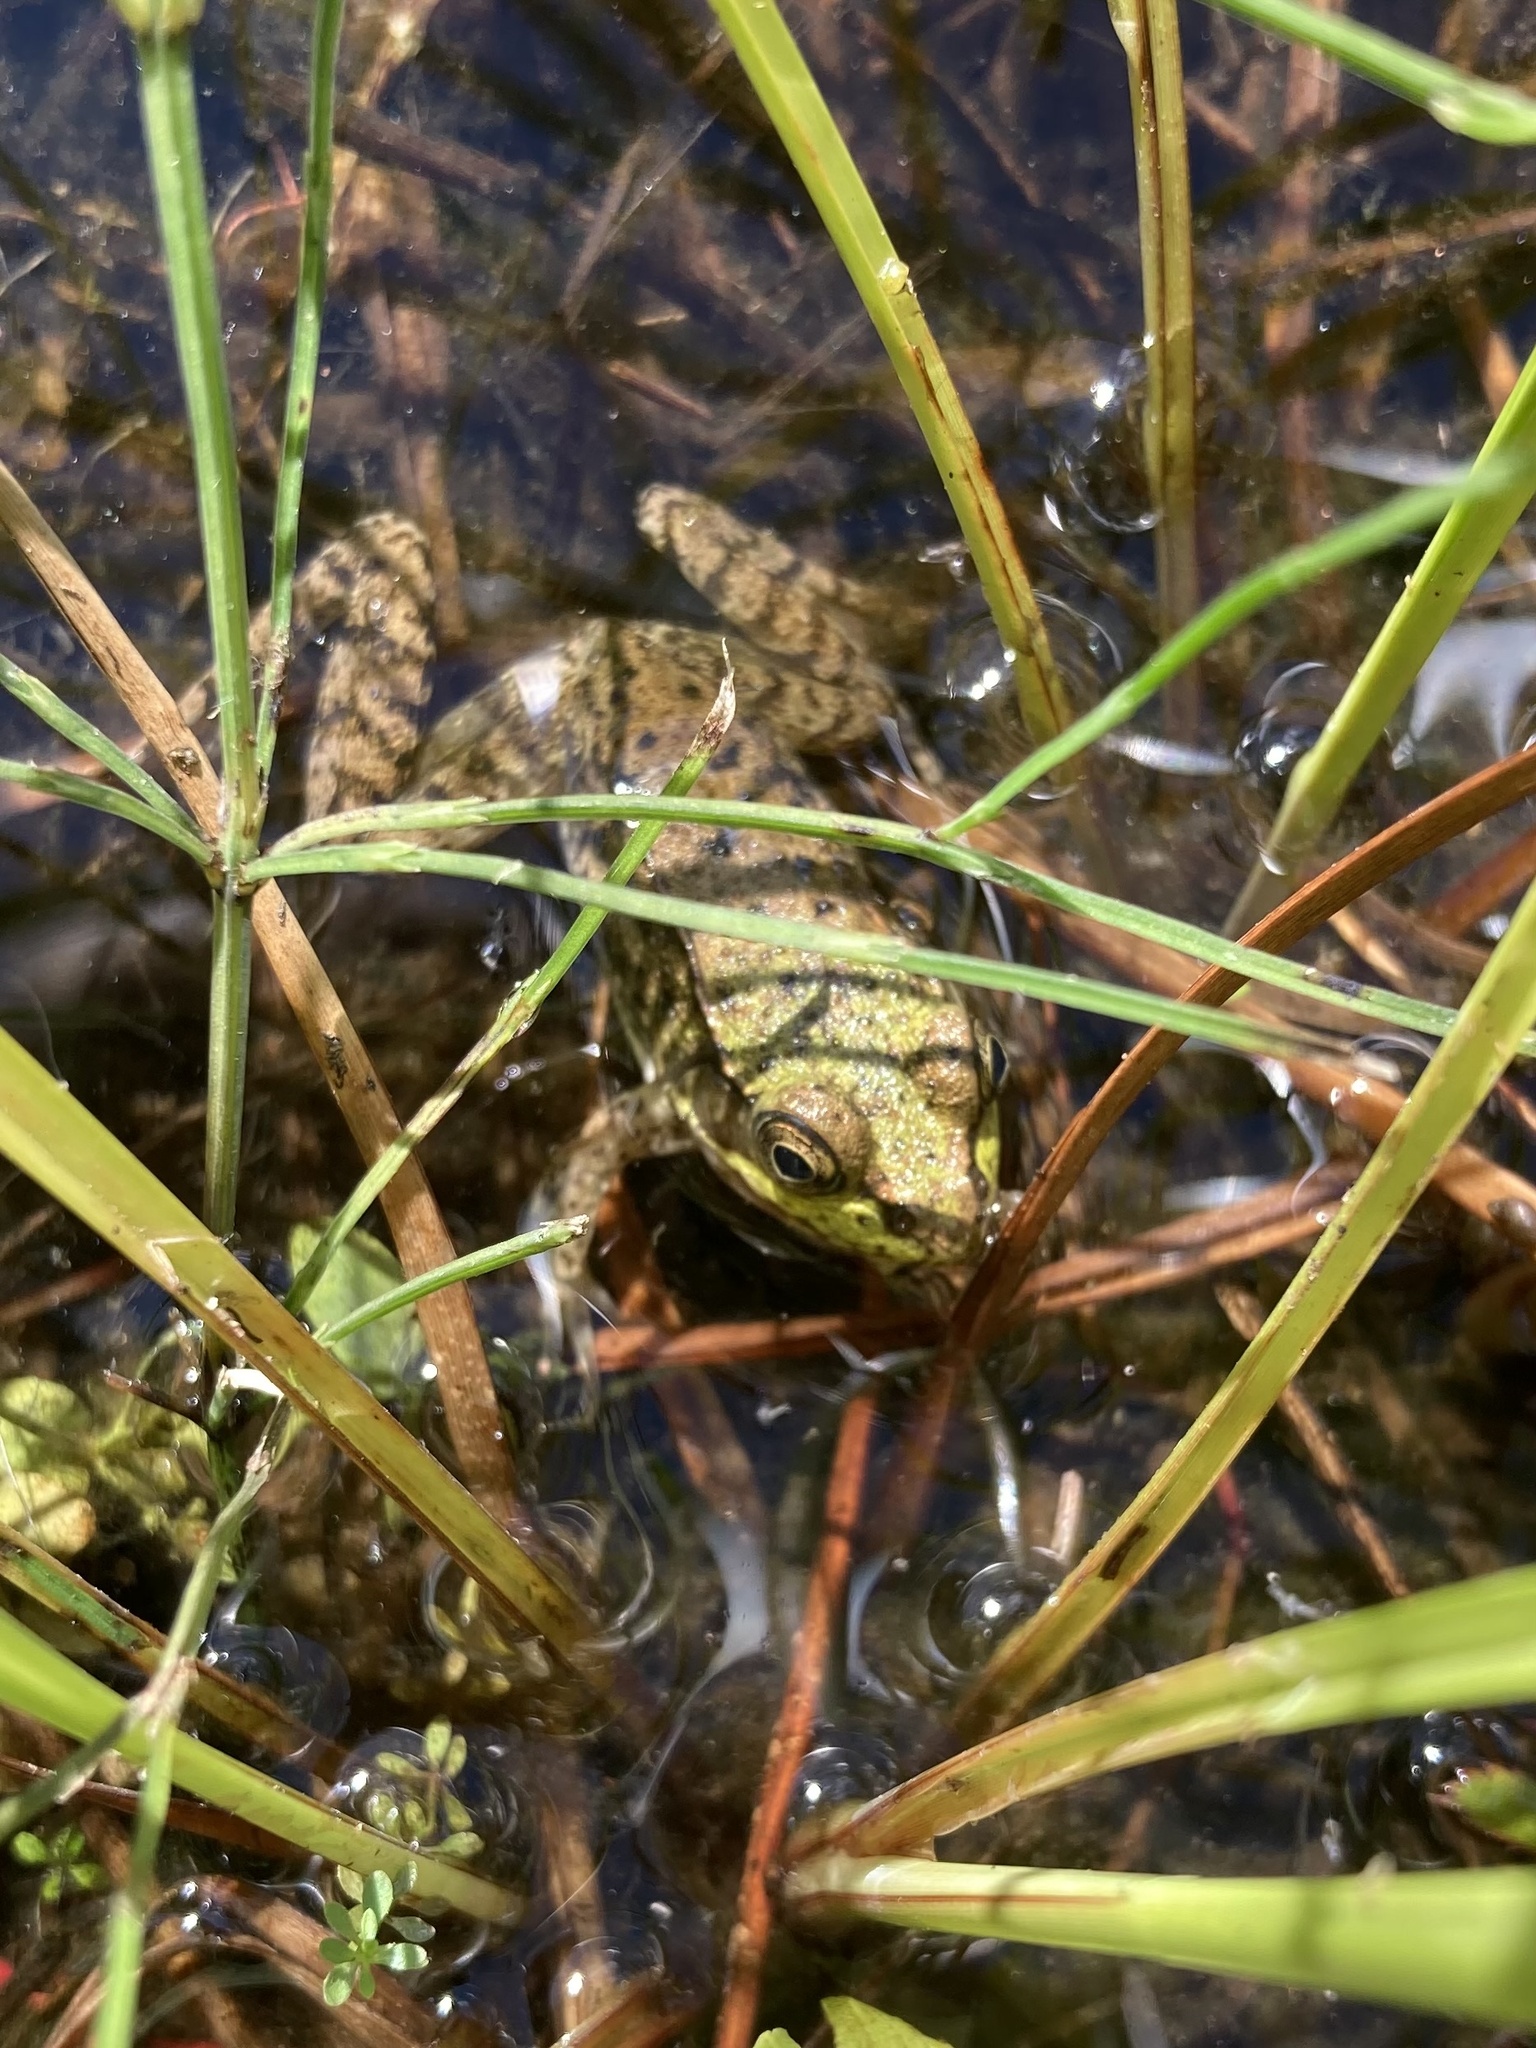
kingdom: Animalia
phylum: Chordata
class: Amphibia
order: Anura
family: Ranidae
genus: Lithobates
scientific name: Lithobates clamitans
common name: Green frog
